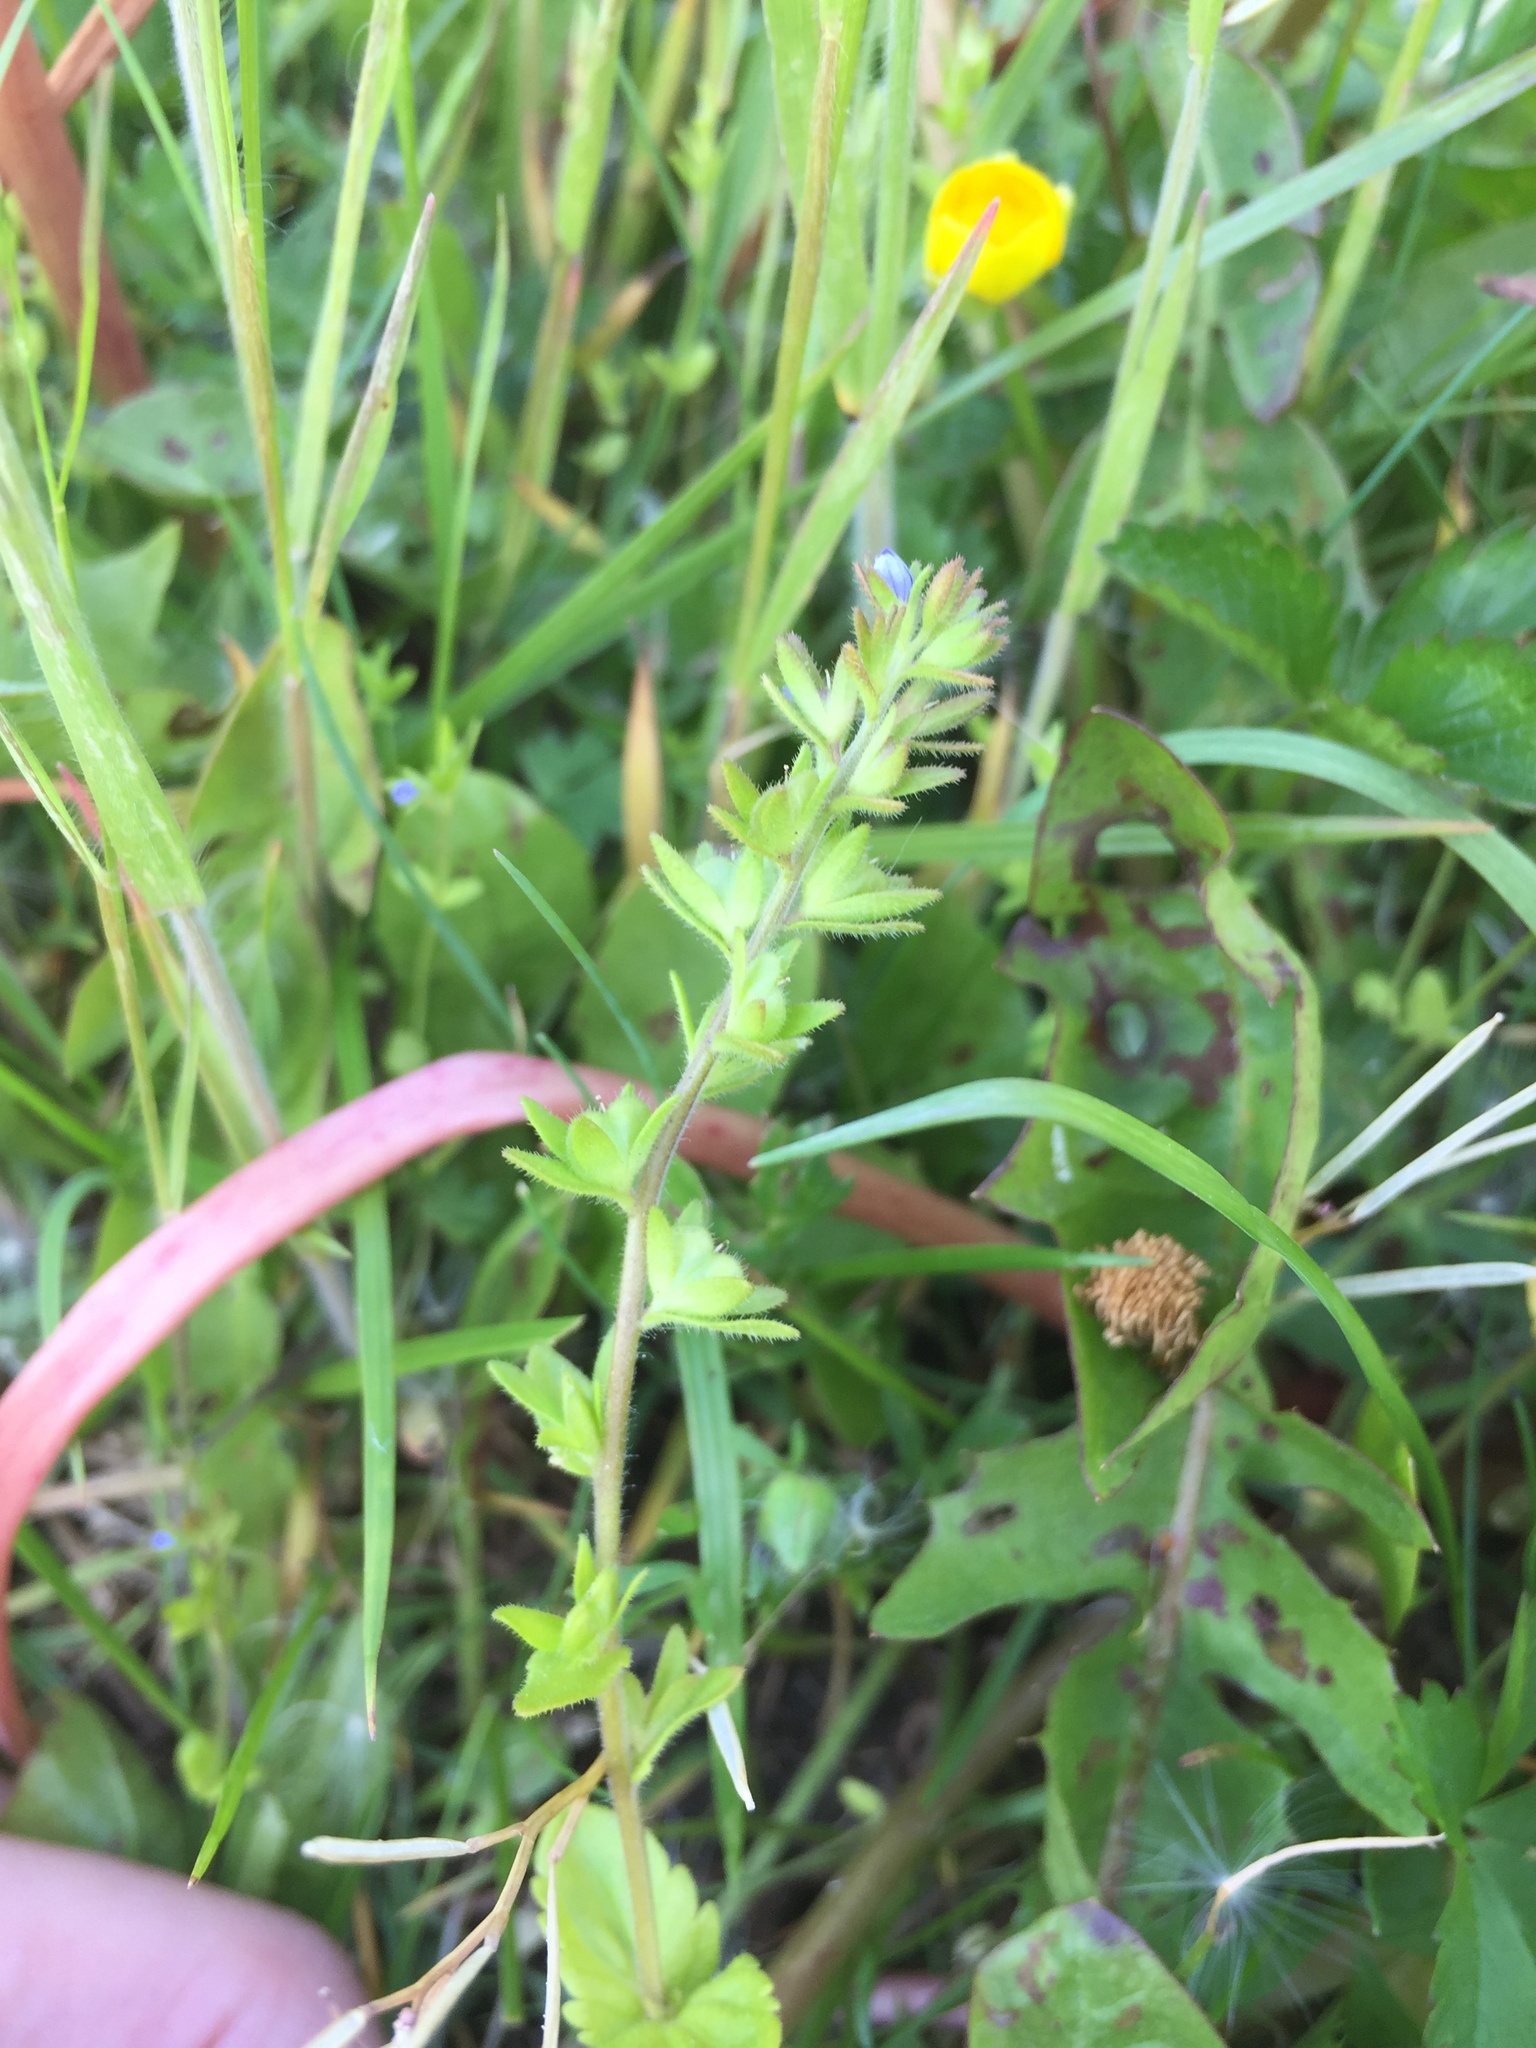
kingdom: Plantae
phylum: Tracheophyta
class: Magnoliopsida
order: Lamiales
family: Plantaginaceae
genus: Veronica
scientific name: Veronica arvensis
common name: Corn speedwell
